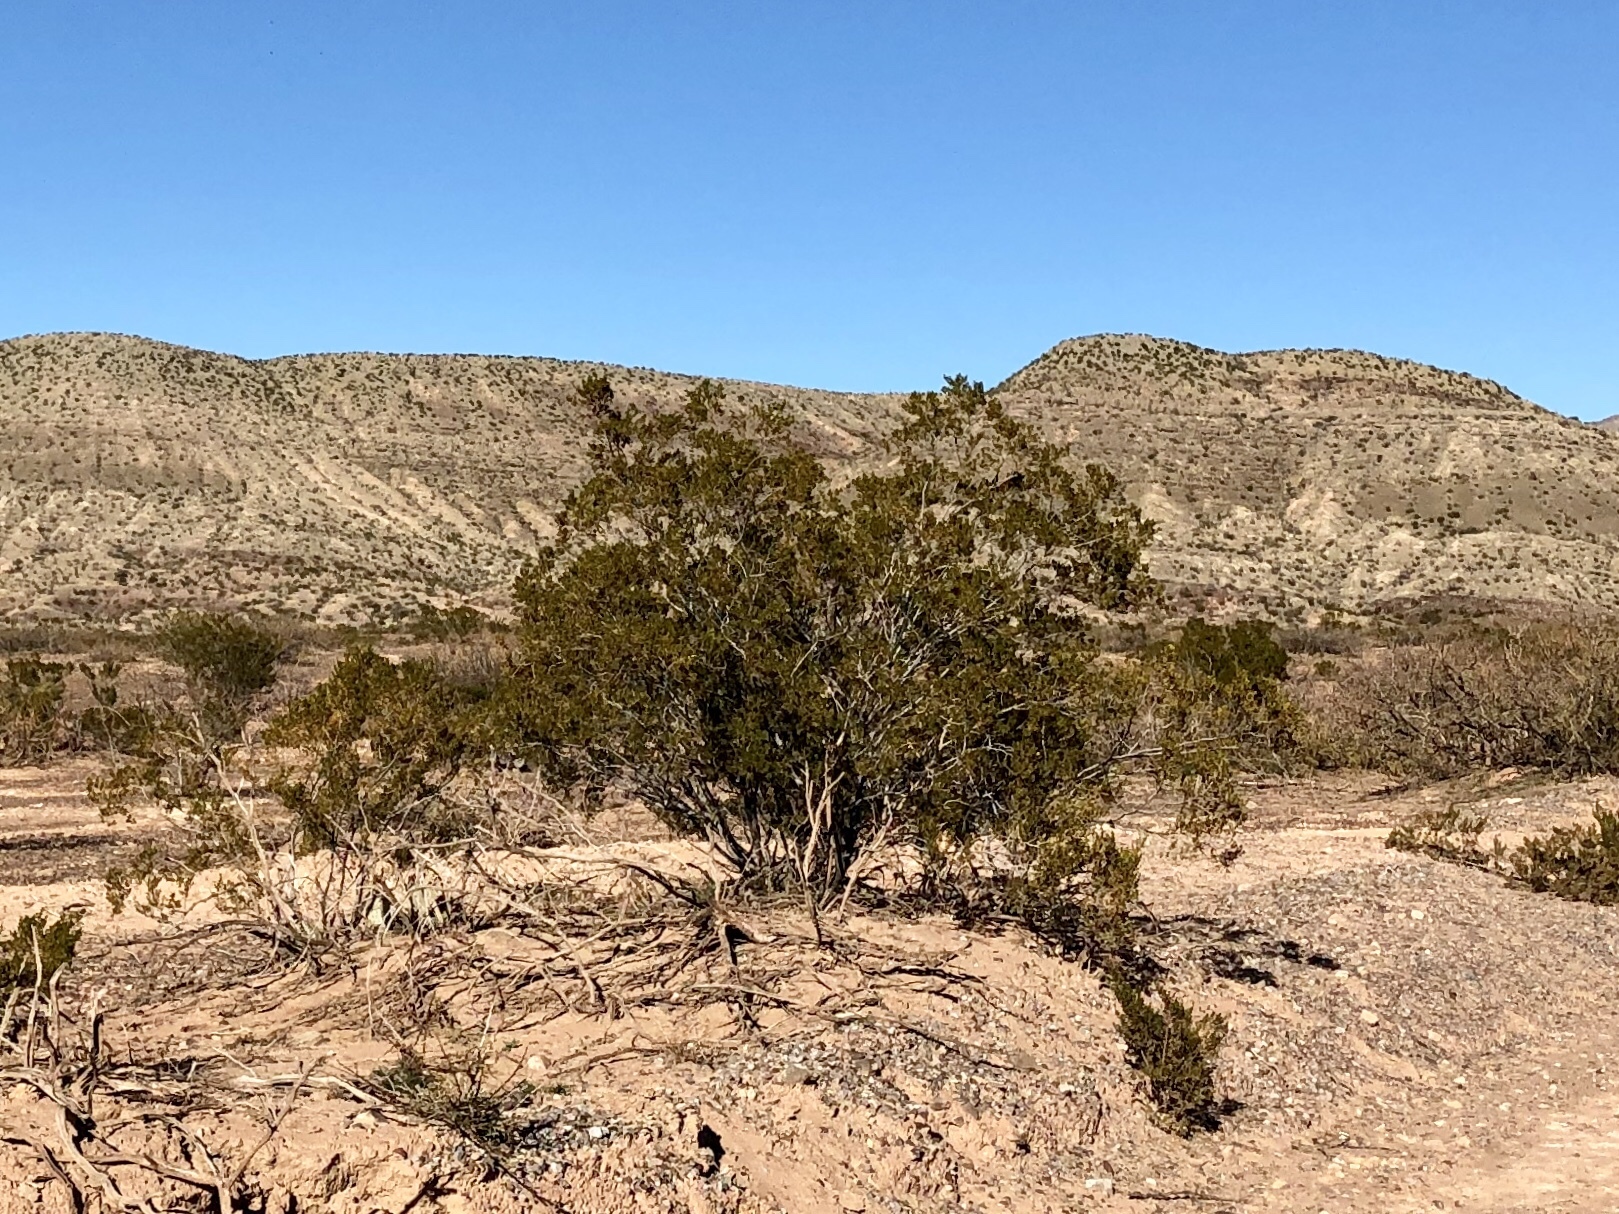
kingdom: Plantae
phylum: Tracheophyta
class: Magnoliopsida
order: Zygophyllales
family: Zygophyllaceae
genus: Larrea
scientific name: Larrea tridentata
